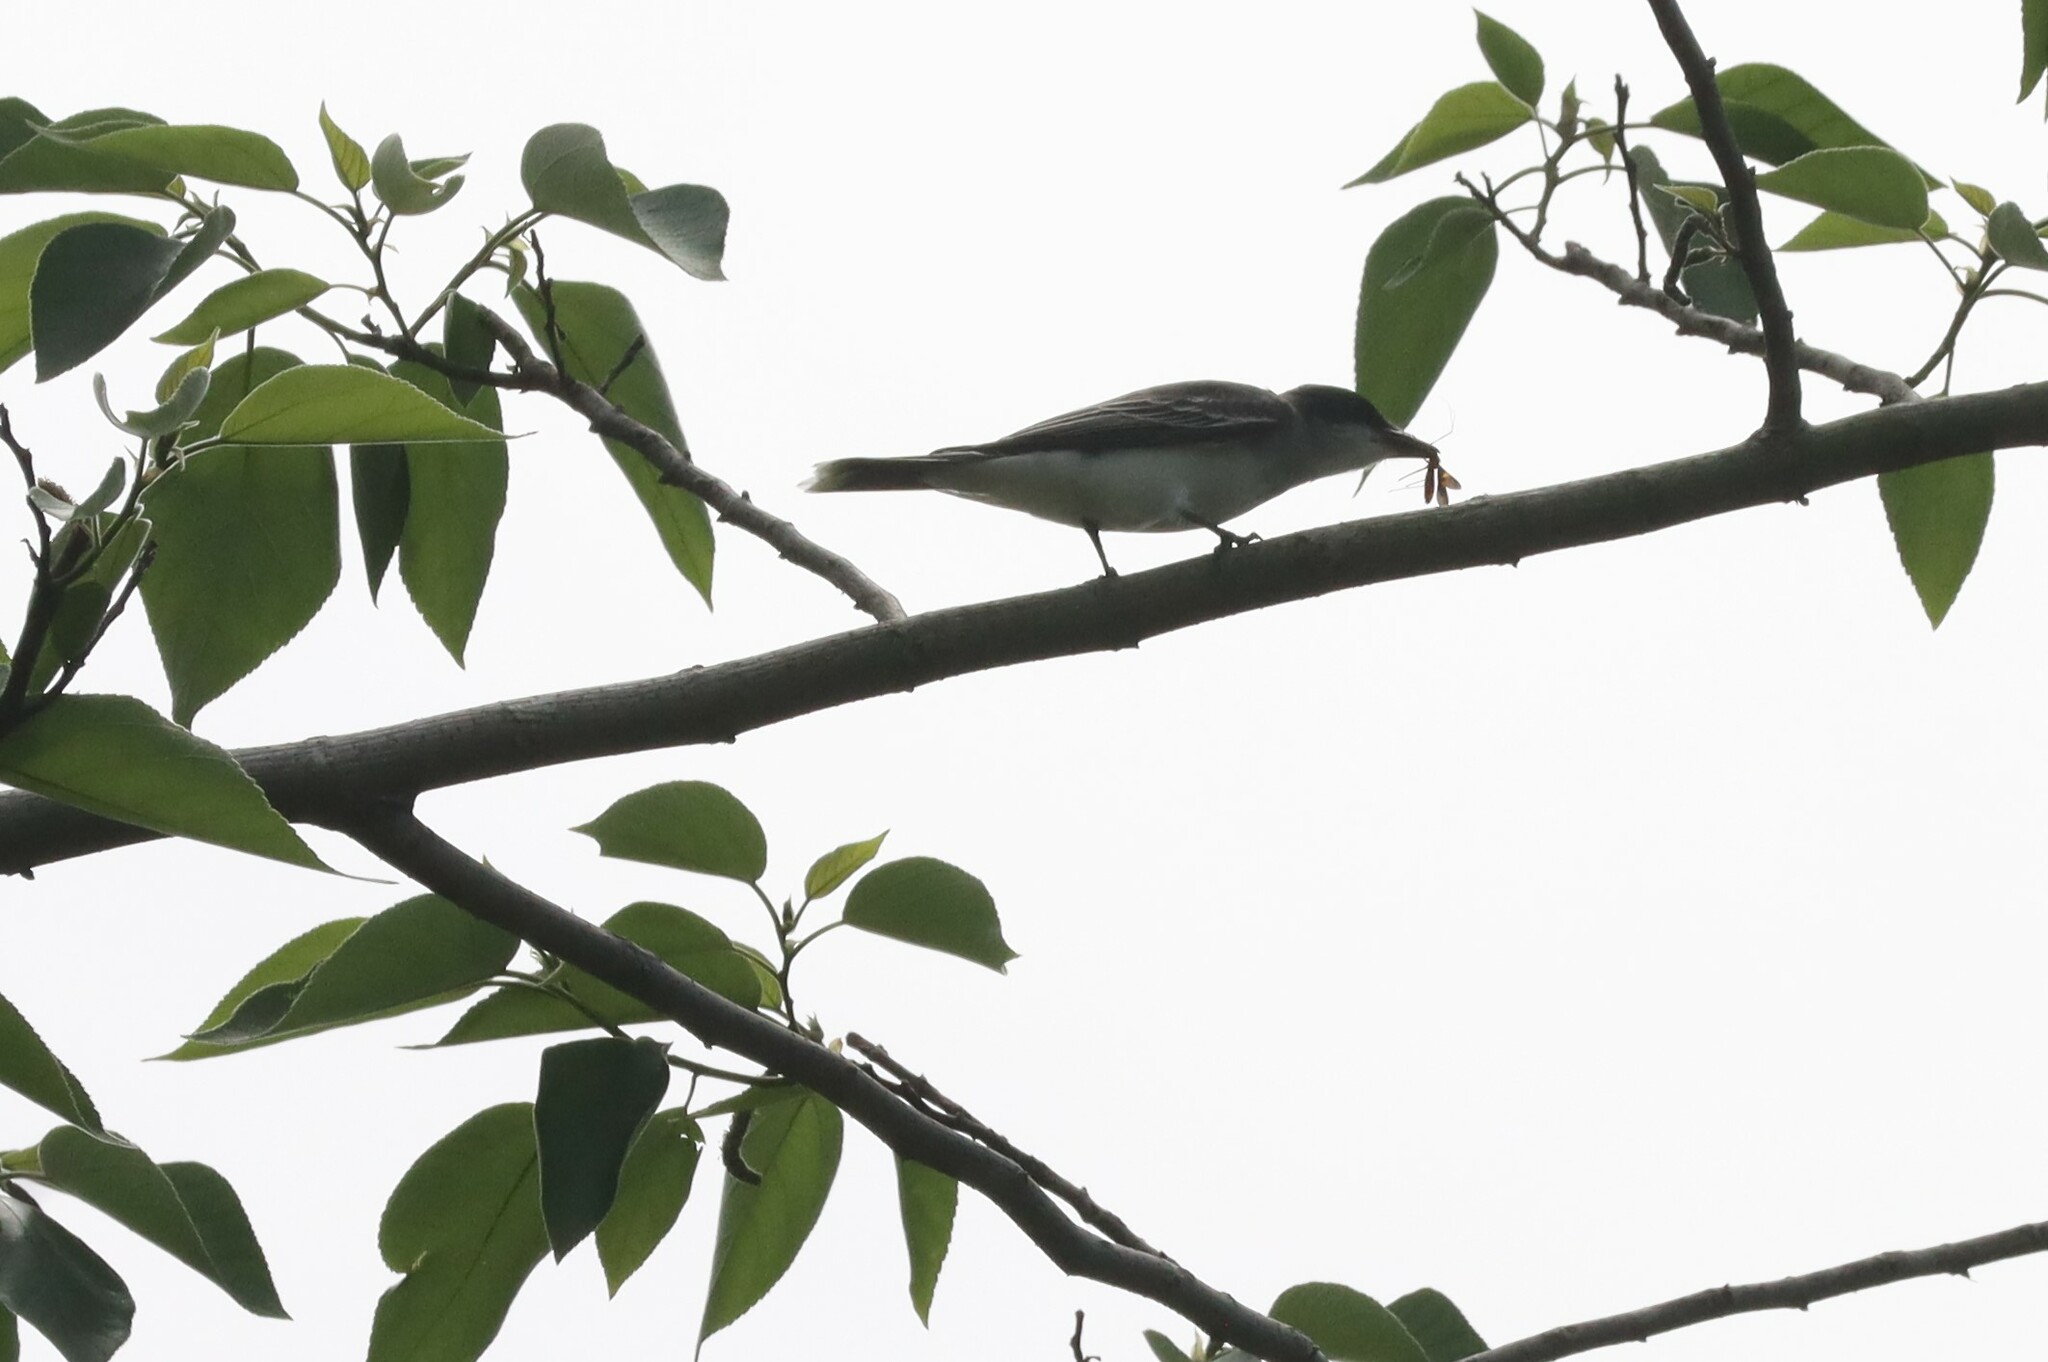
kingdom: Animalia
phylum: Chordata
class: Aves
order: Passeriformes
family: Tyrannidae
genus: Tyrannus
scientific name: Tyrannus tyrannus
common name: Eastern kingbird
